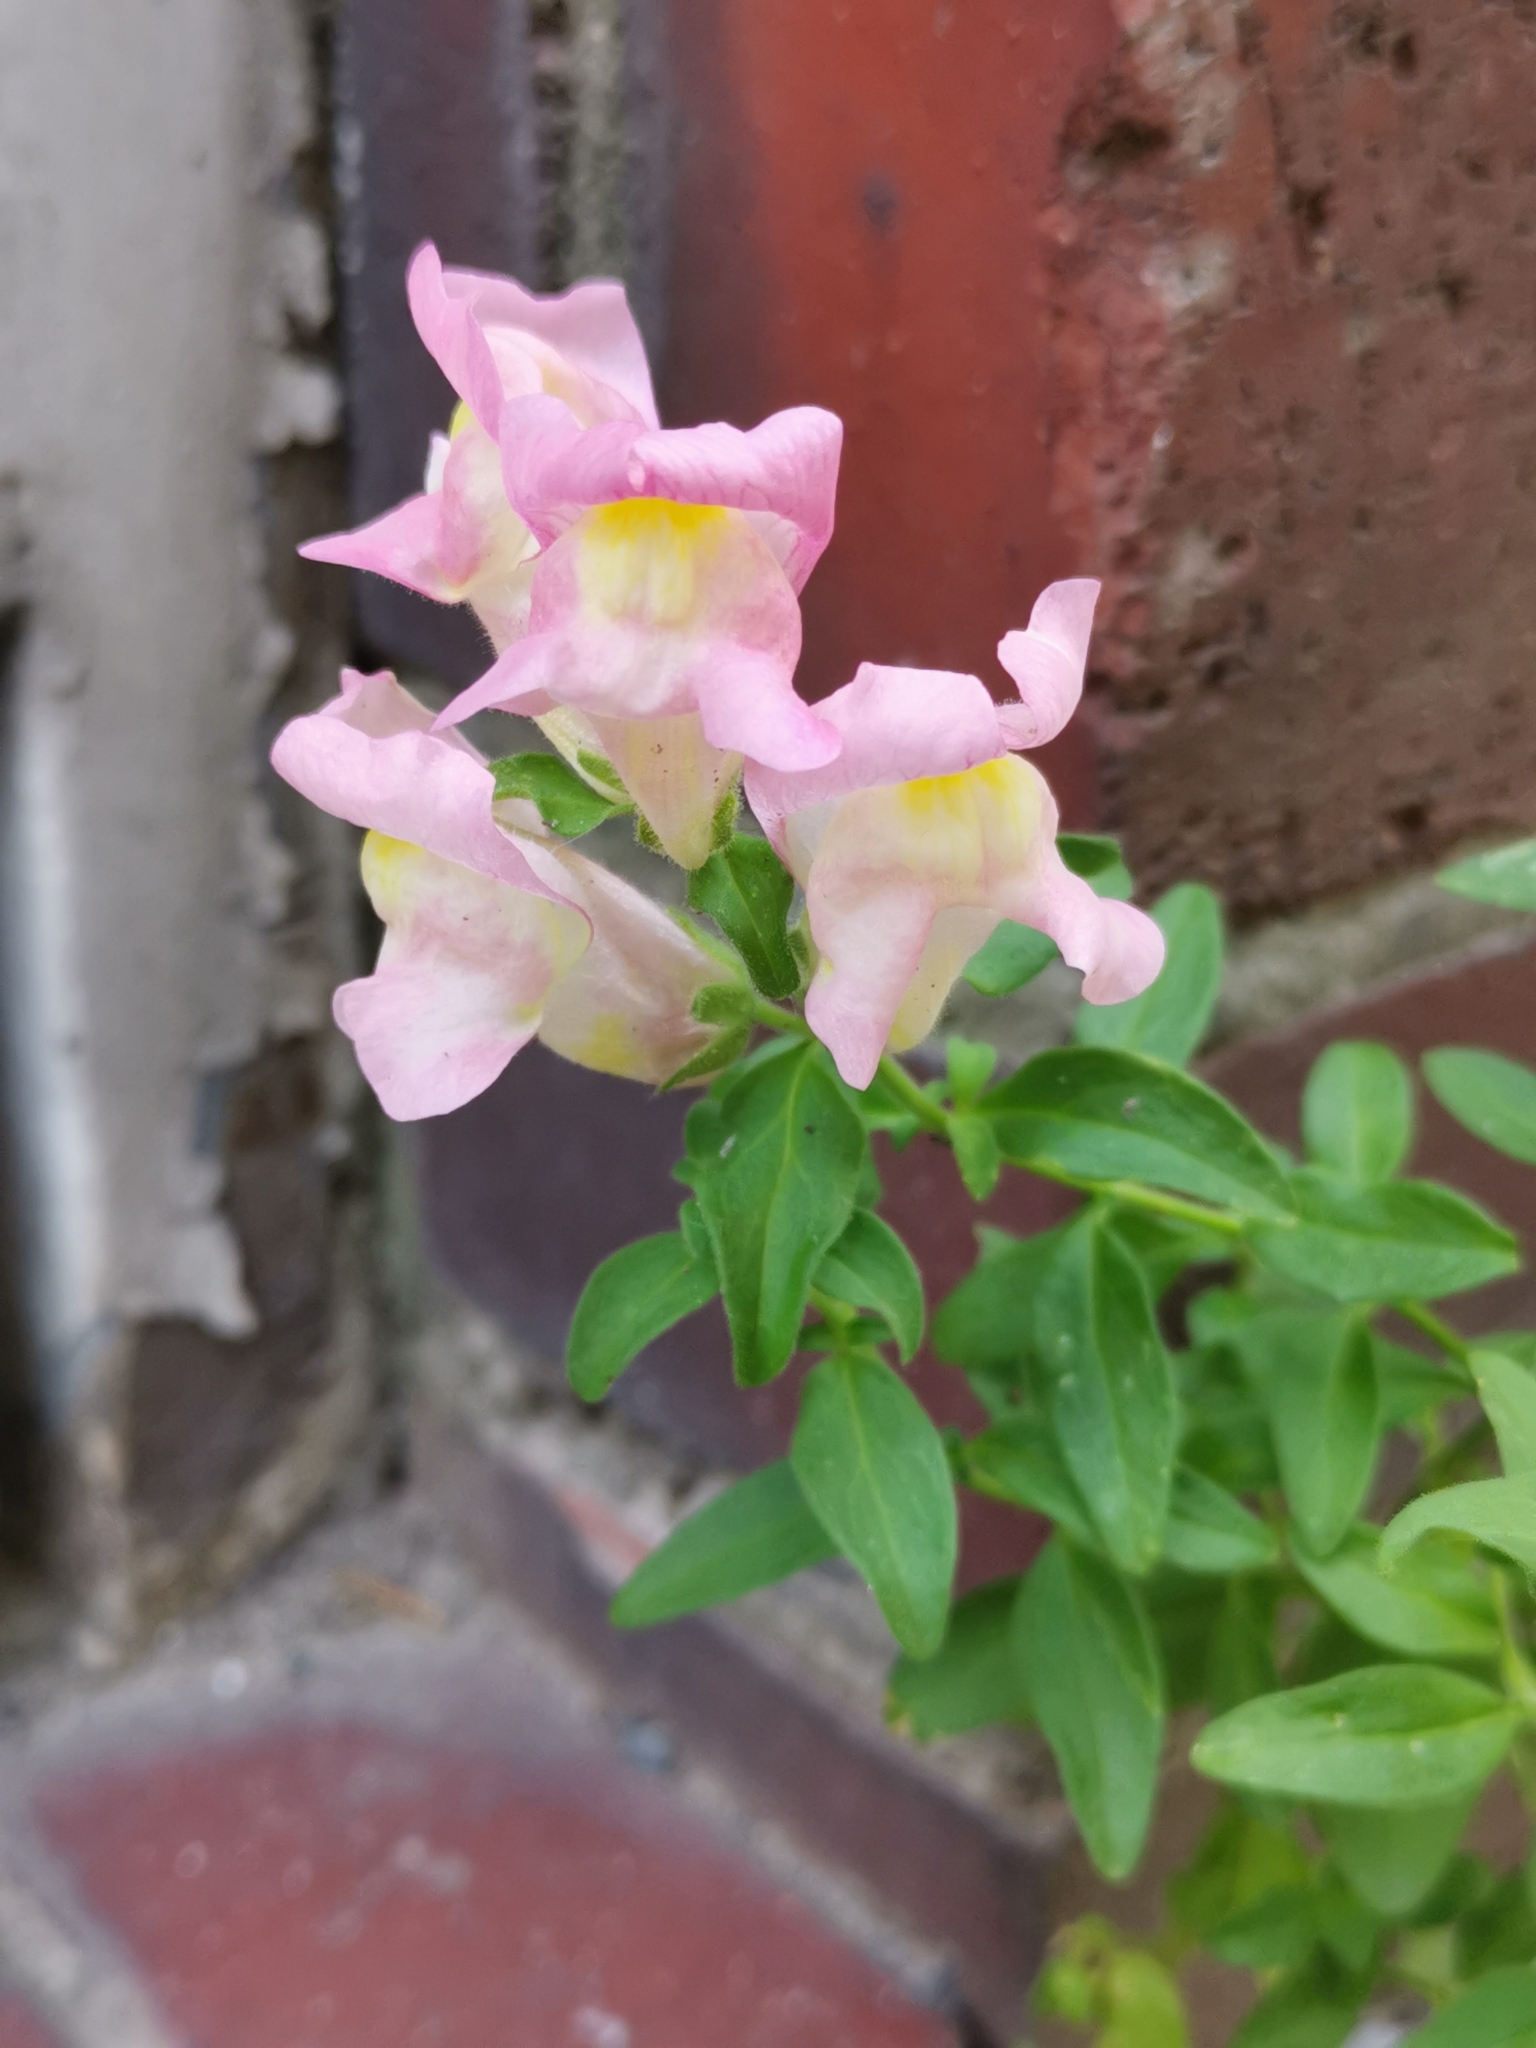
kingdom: Plantae
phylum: Tracheophyta
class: Magnoliopsida
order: Lamiales
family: Plantaginaceae
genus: Antirrhinum
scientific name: Antirrhinum majus
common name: Snapdragon
